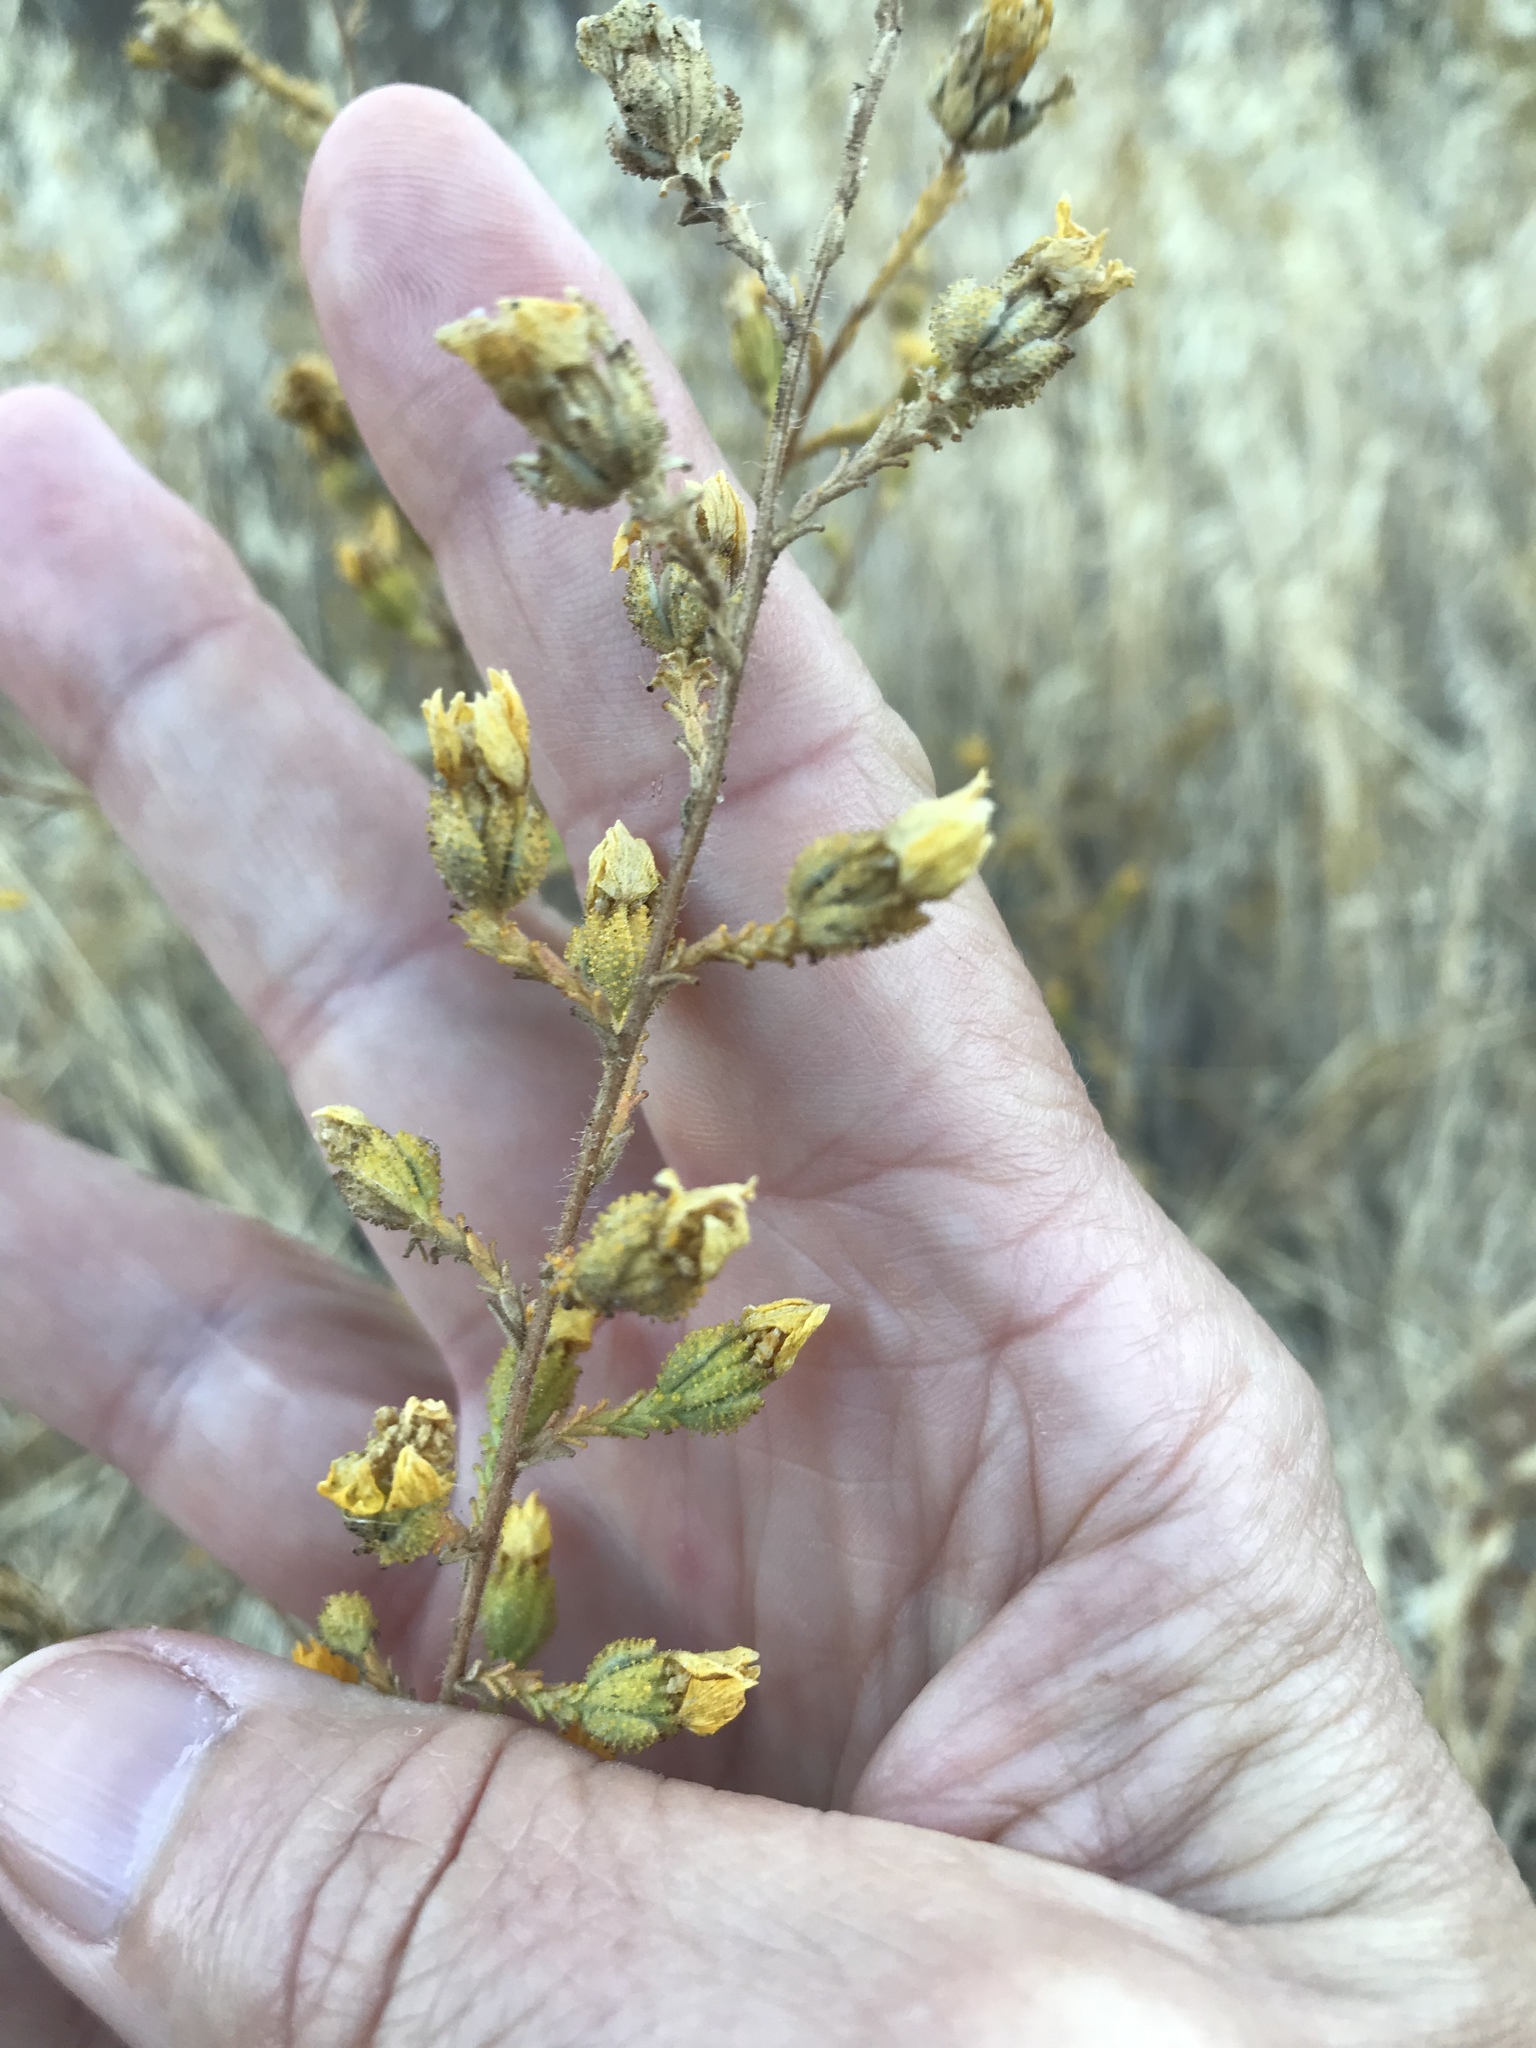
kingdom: Plantae
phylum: Tracheophyta
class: Magnoliopsida
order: Asterales
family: Asteraceae
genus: Holocarpha
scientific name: Holocarpha heermannii
